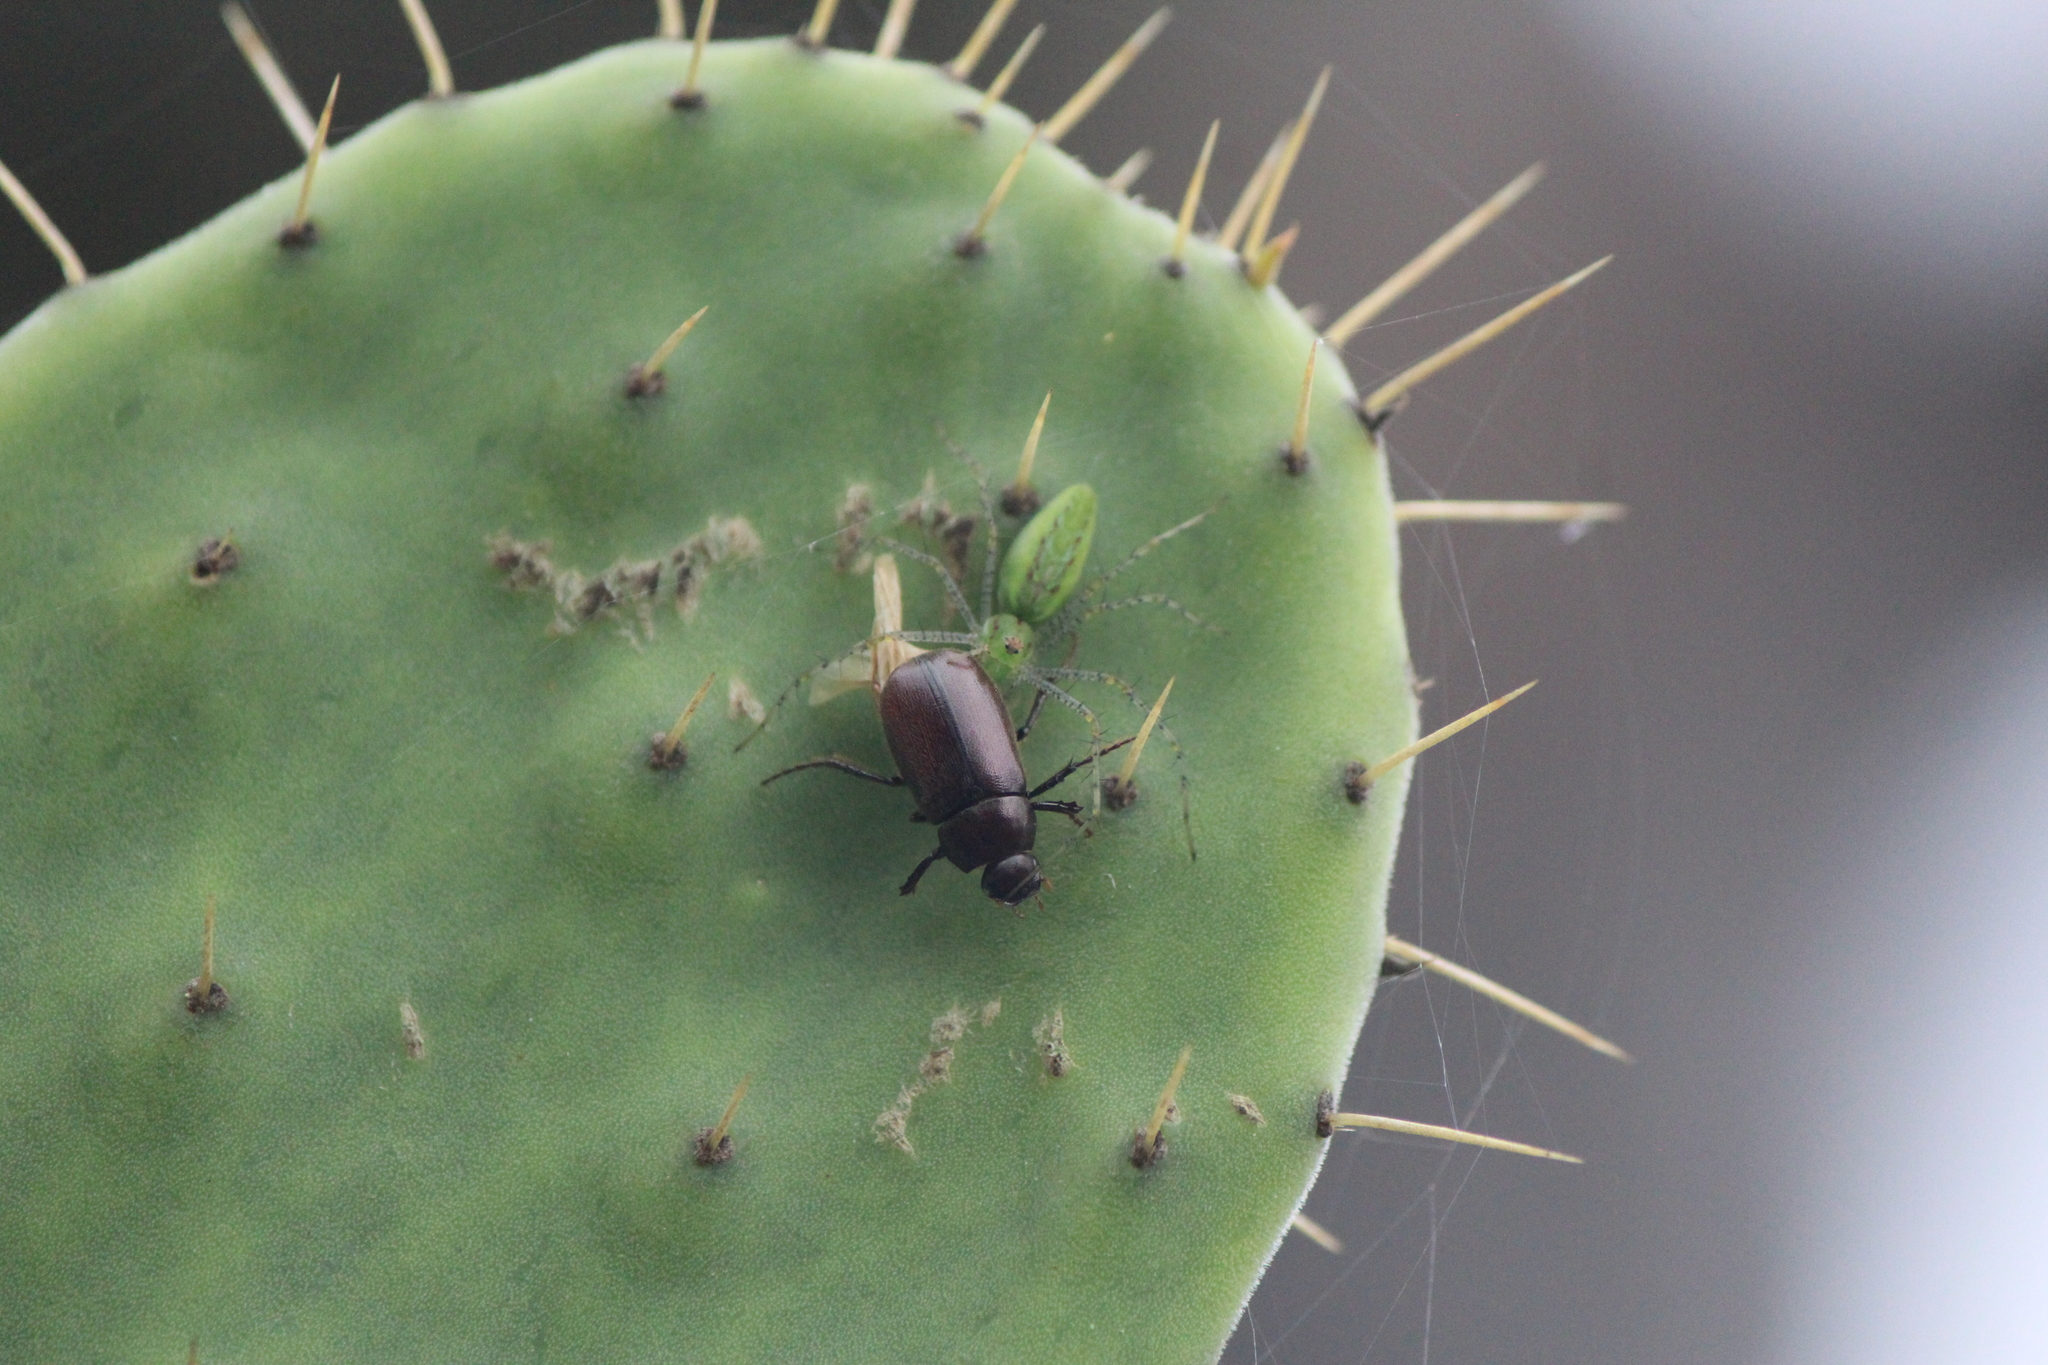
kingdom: Animalia
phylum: Arthropoda
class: Arachnida
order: Araneae
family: Oxyopidae
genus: Peucetia
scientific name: Peucetia viridans
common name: Lynx spiders
